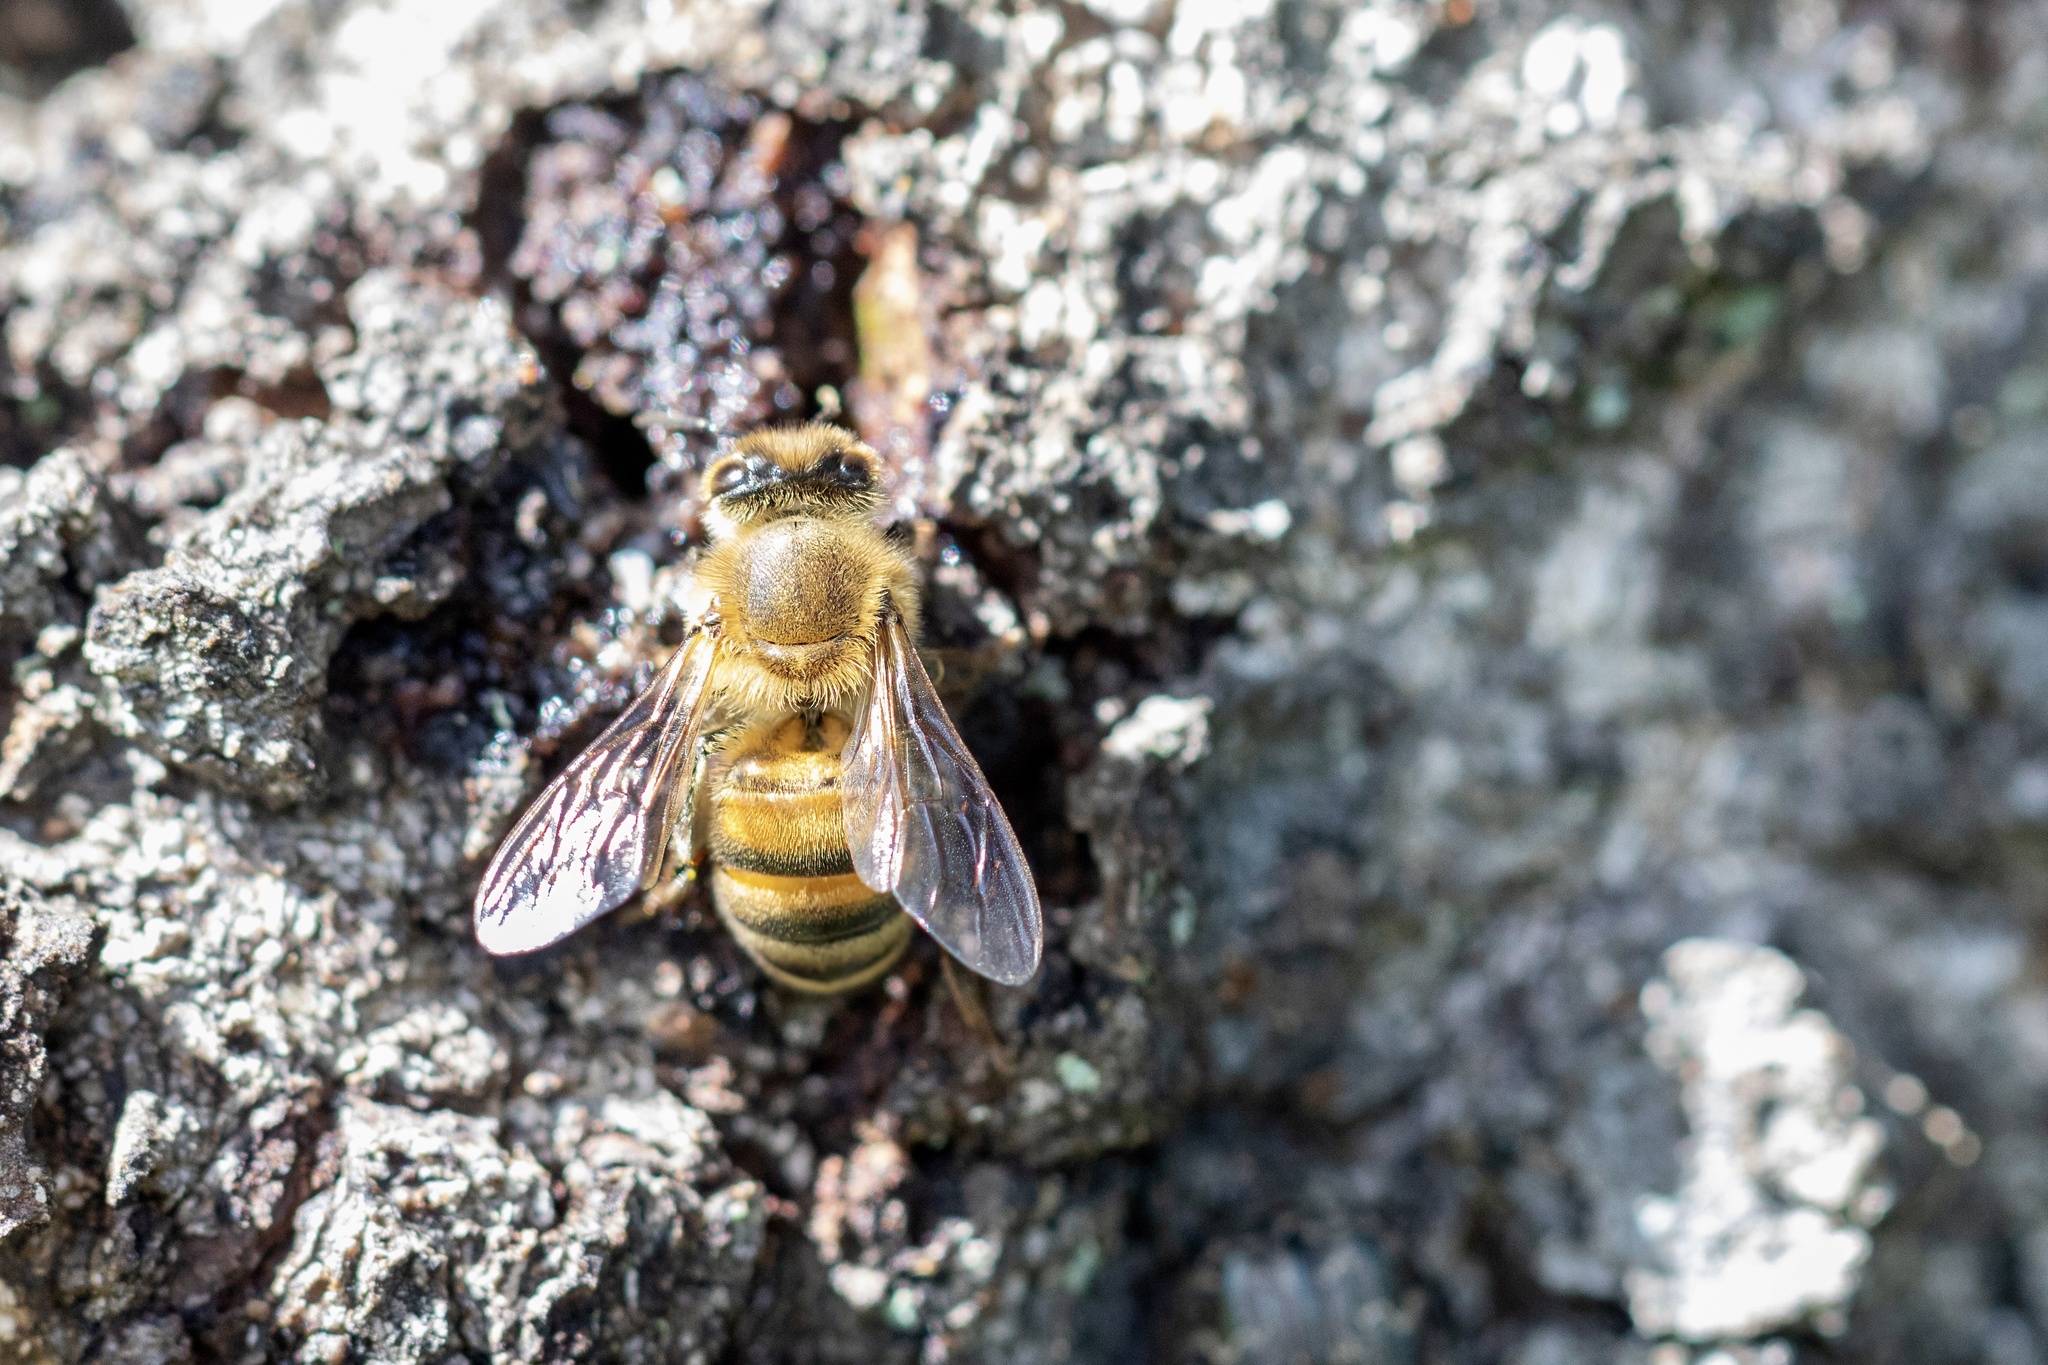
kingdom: Animalia
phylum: Arthropoda
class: Insecta
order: Hymenoptera
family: Apidae
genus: Apis
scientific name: Apis mellifera
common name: Honey bee
